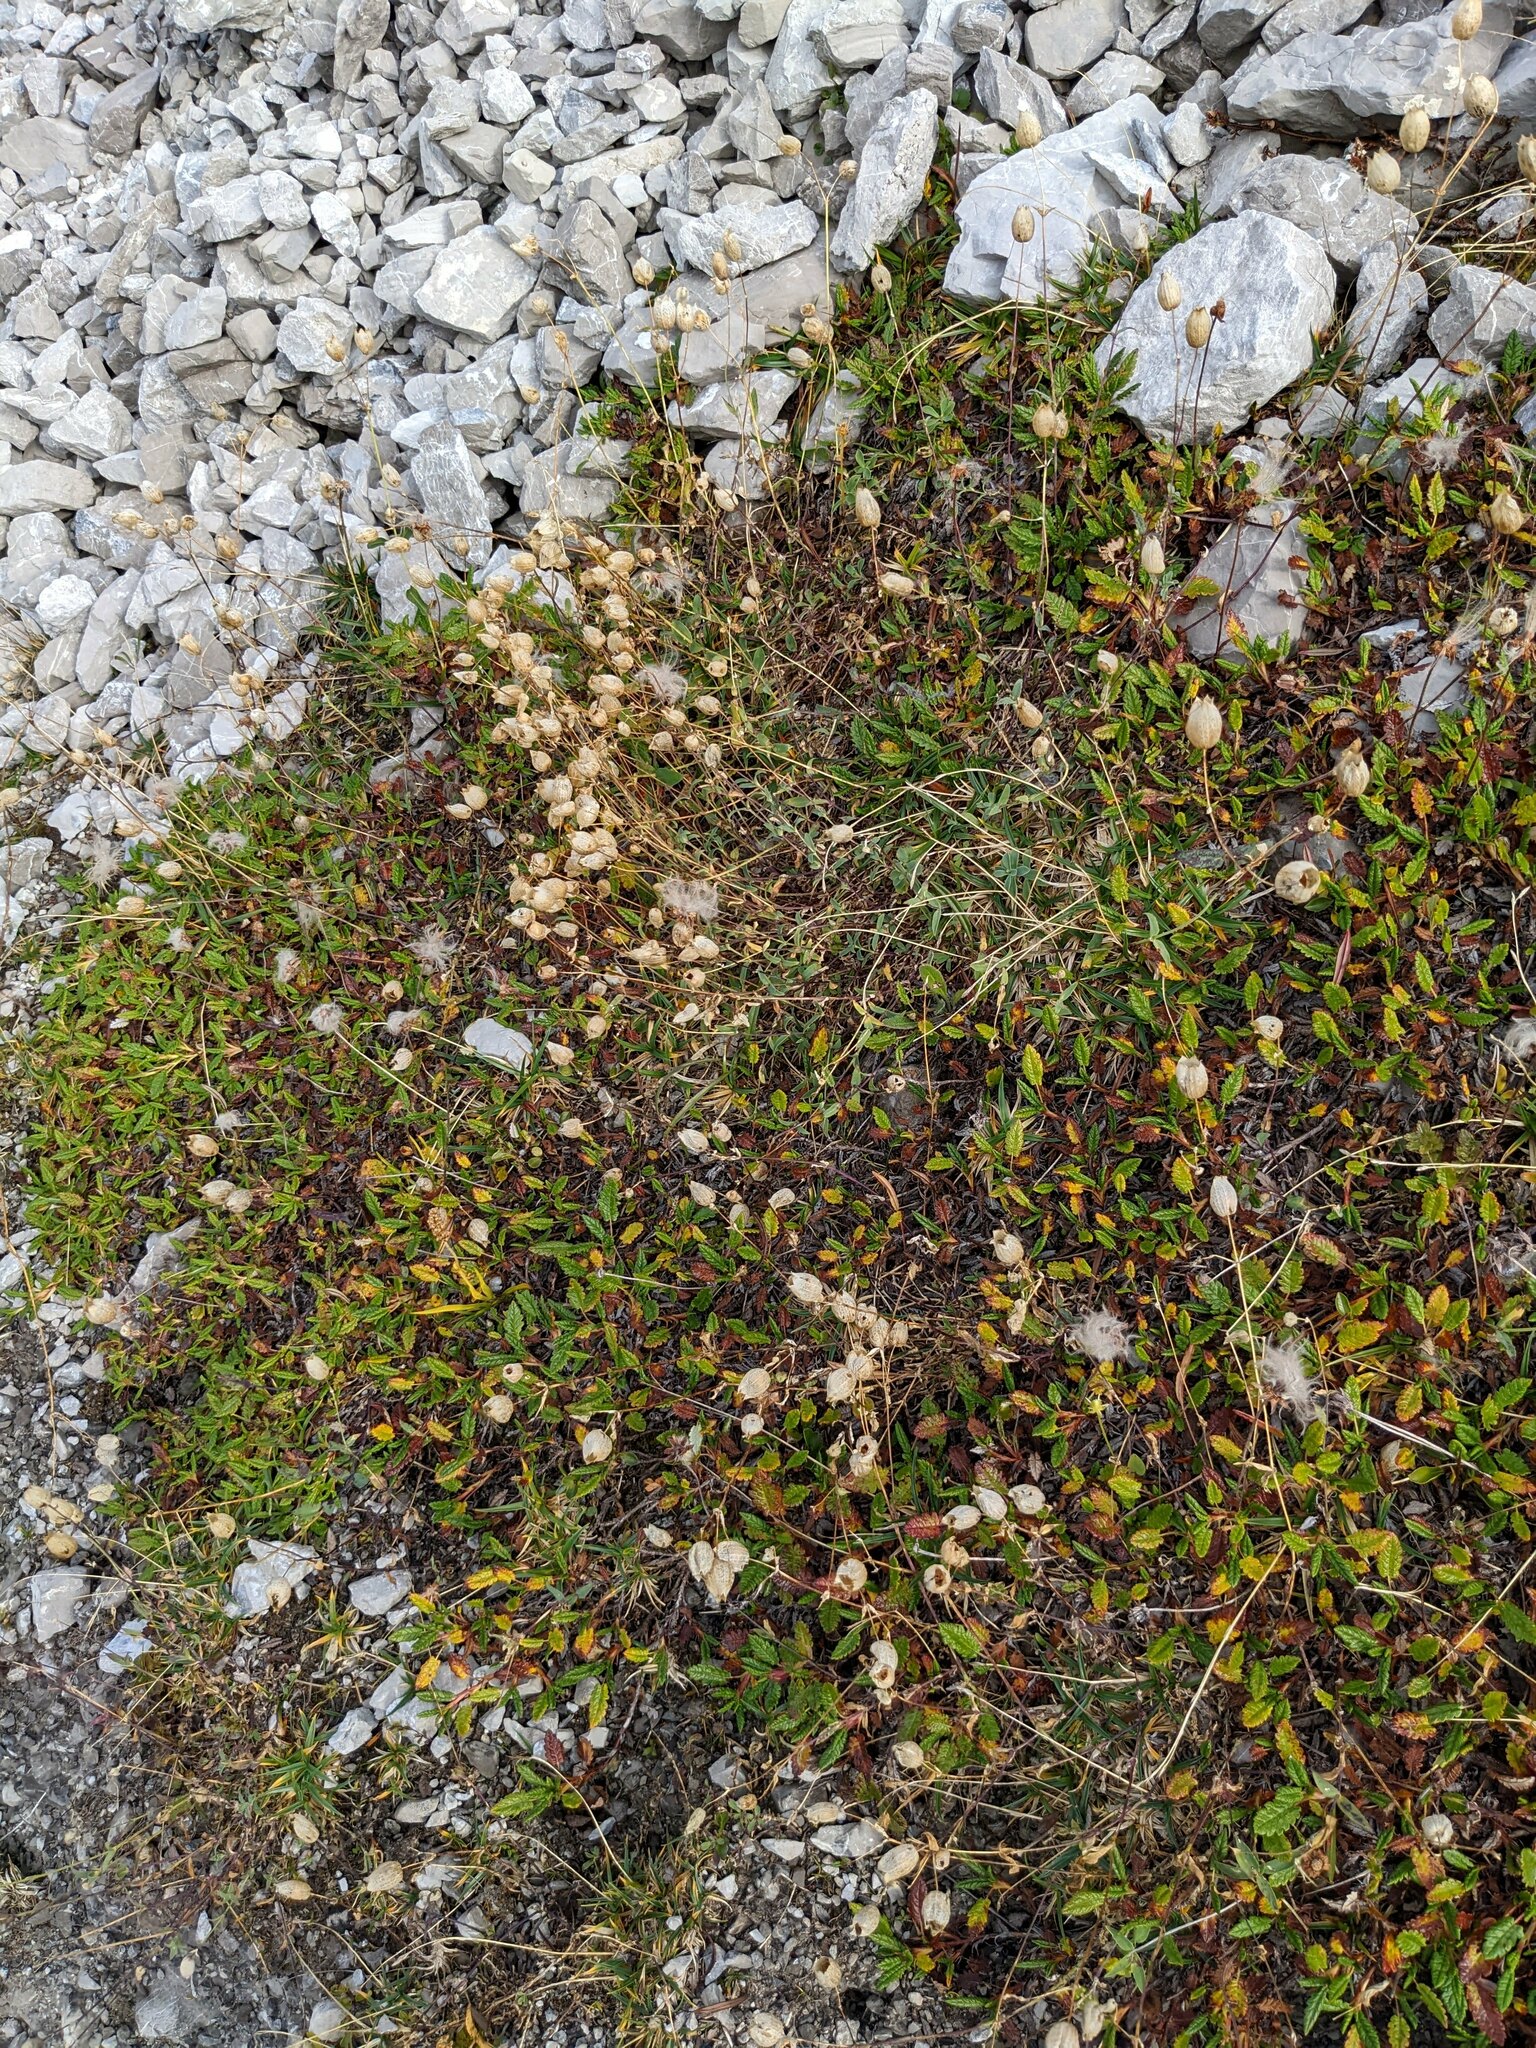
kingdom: Plantae
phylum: Tracheophyta
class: Magnoliopsida
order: Rosales
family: Rosaceae
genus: Dryas
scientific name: Dryas octopetala
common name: Eight-petal mountain-avens
